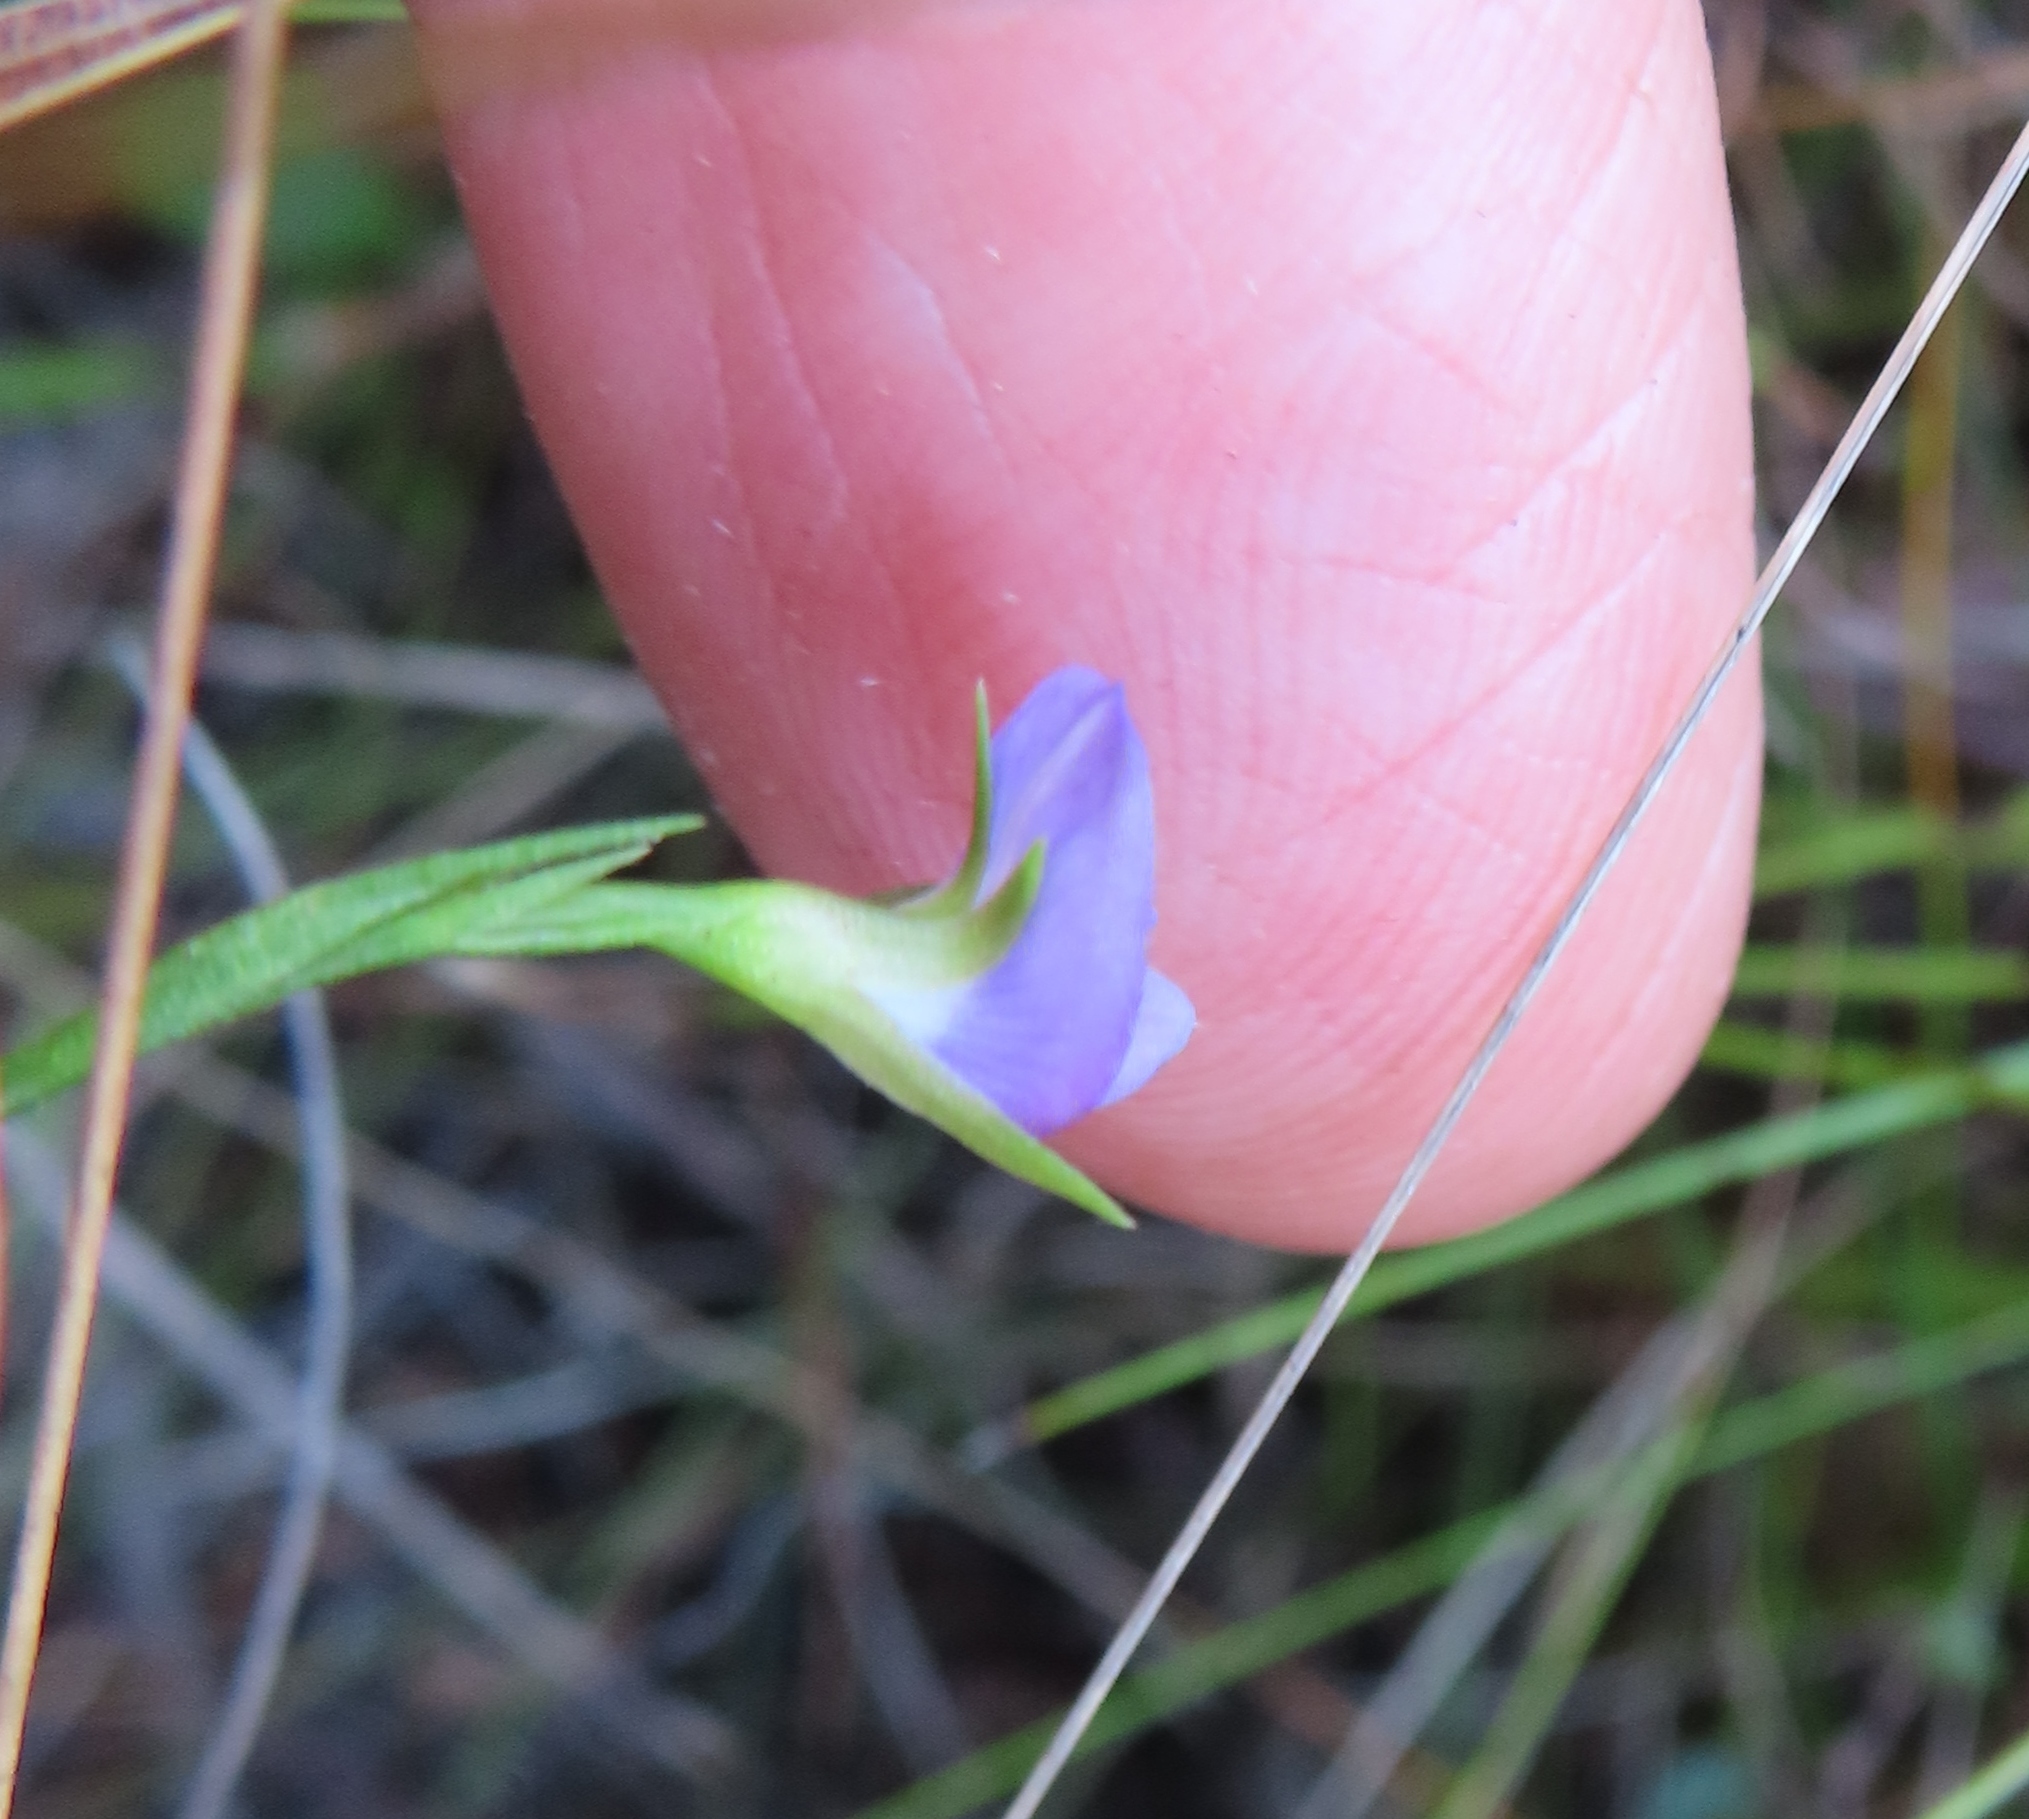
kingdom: Plantae
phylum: Tracheophyta
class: Magnoliopsida
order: Fabales
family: Fabaceae
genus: Psoralea
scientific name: Psoralea oreophila
